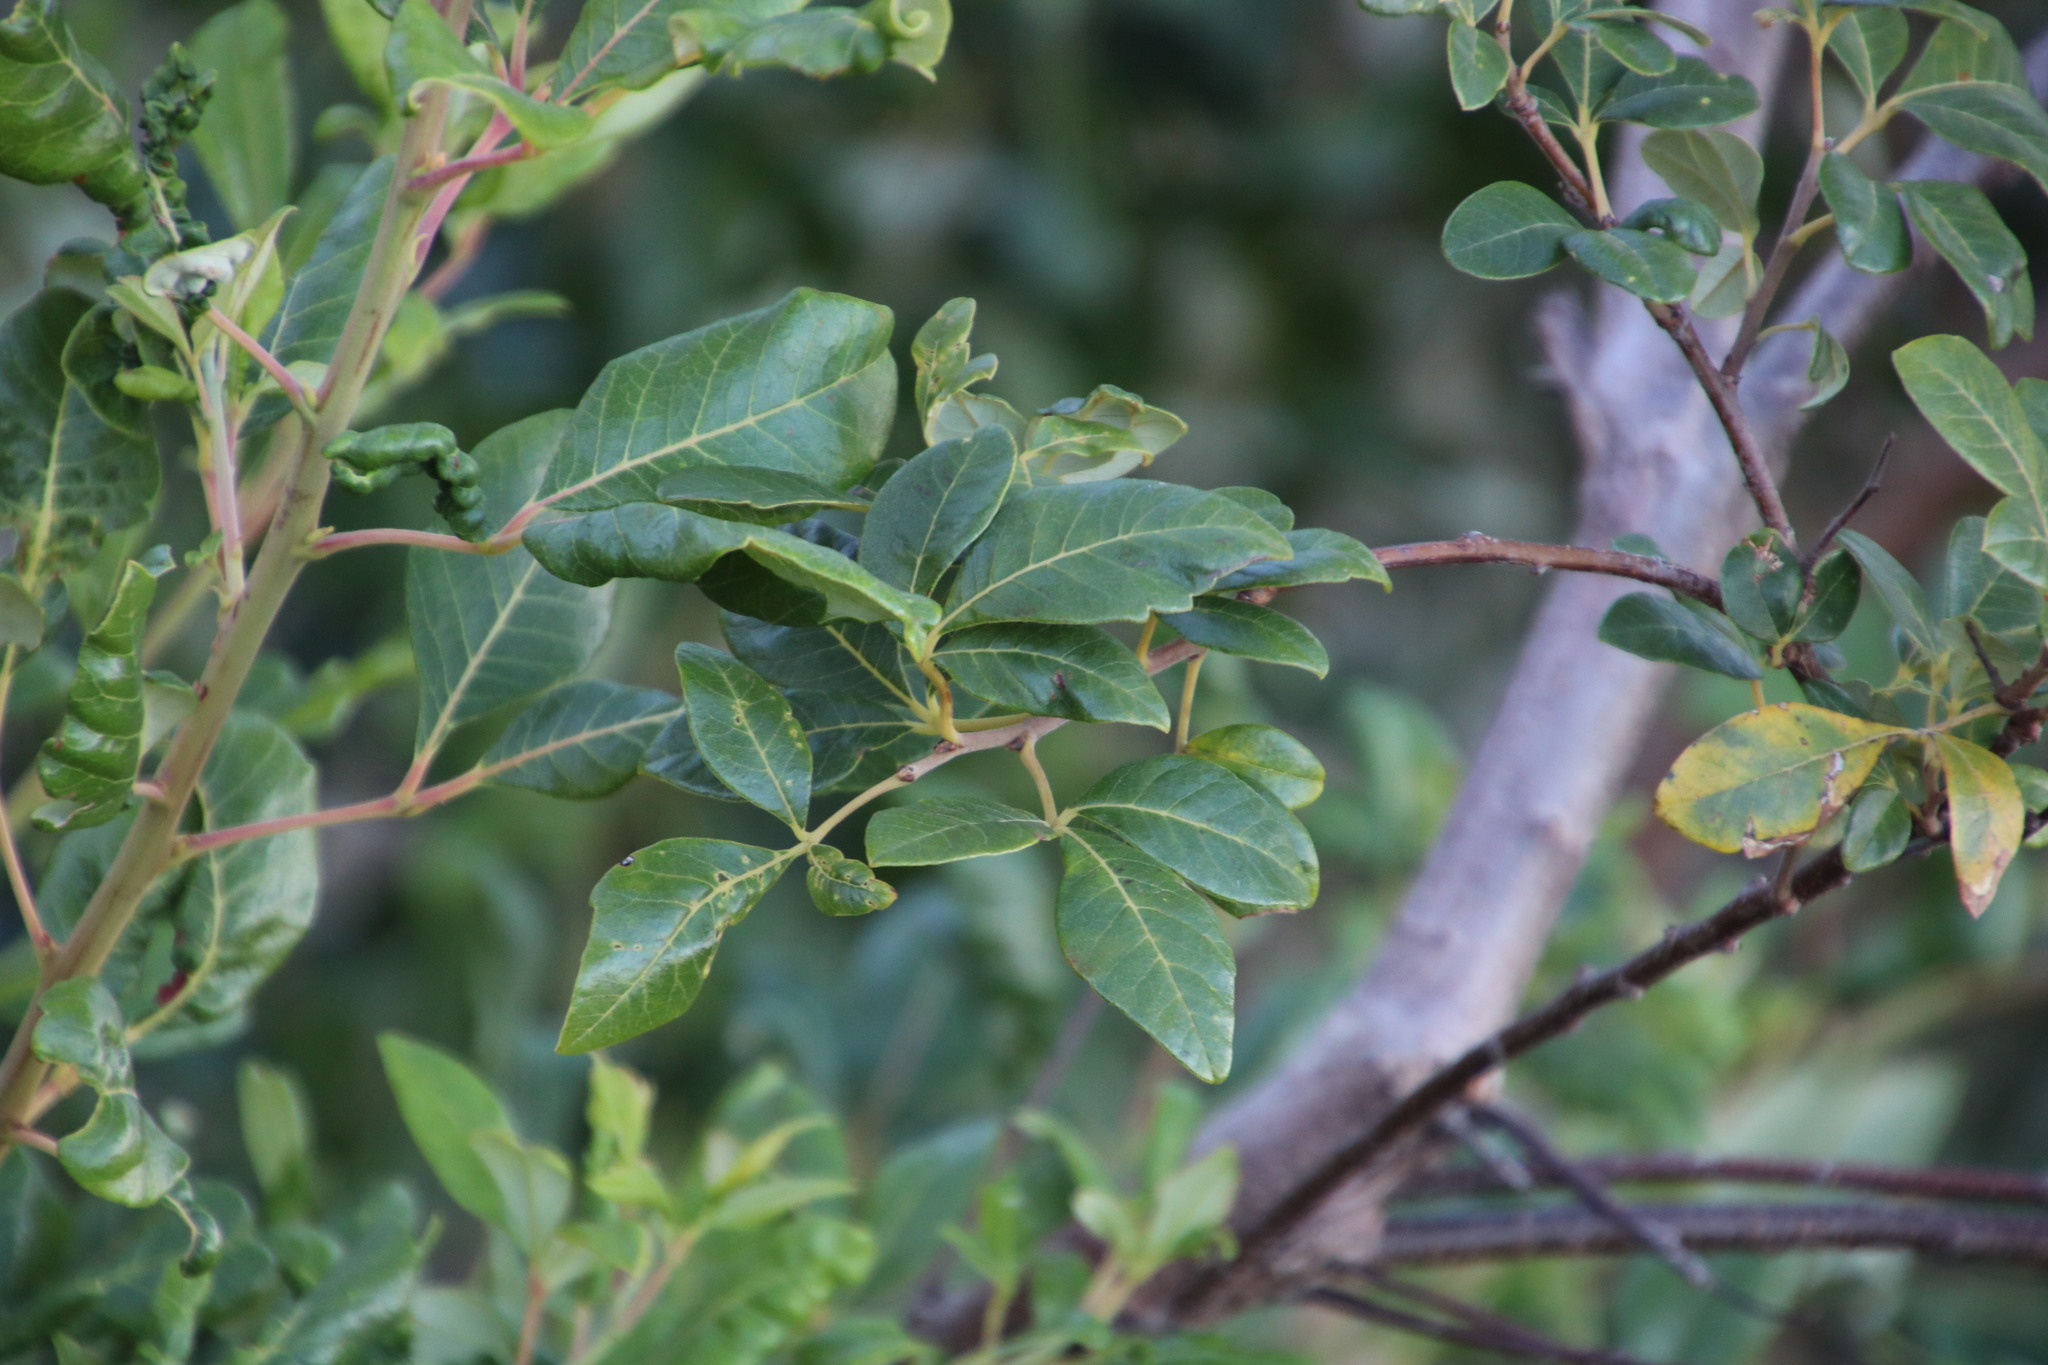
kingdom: Plantae
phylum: Tracheophyta
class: Magnoliopsida
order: Sapindales
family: Anacardiaceae
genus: Searsia
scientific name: Searsia tomentosa
